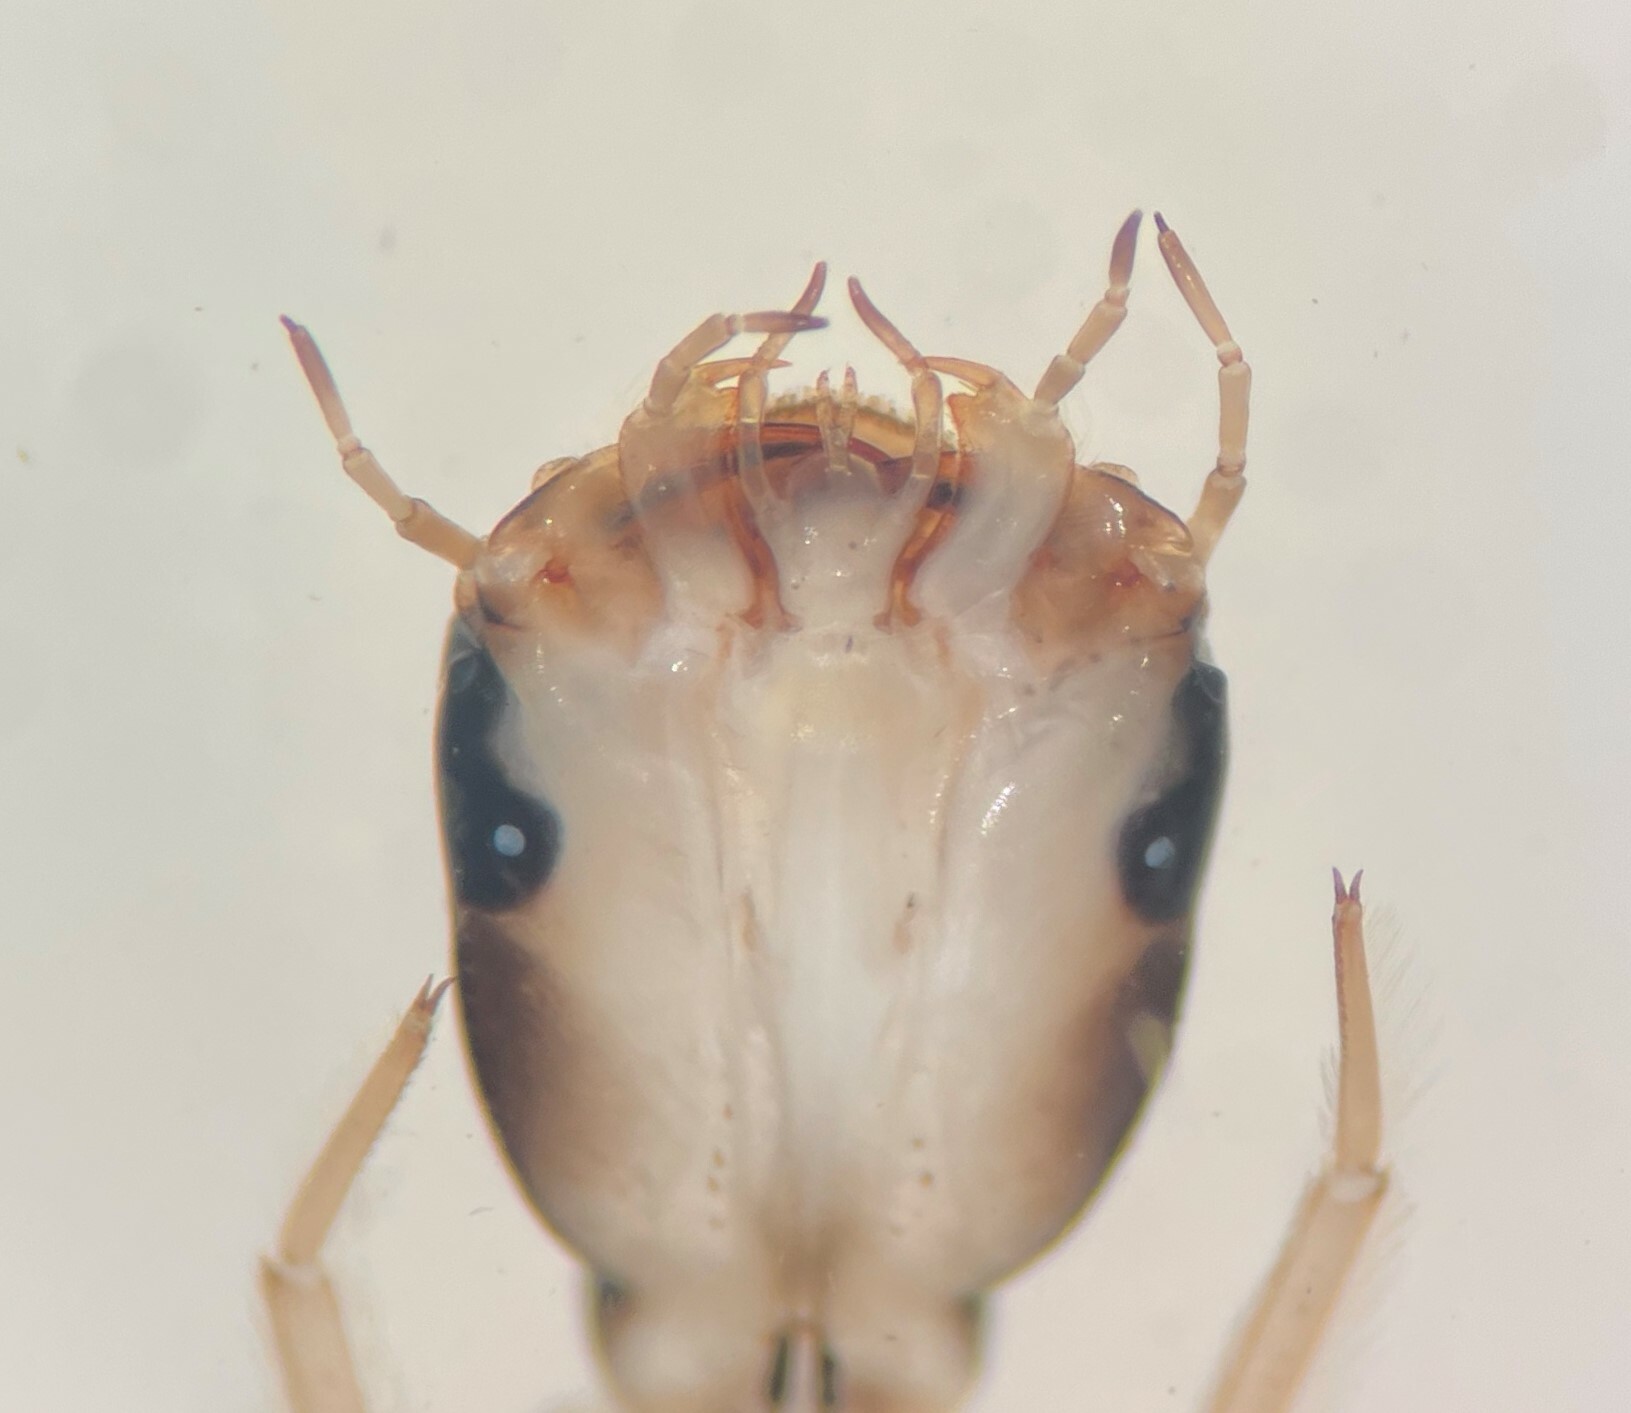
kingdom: Animalia
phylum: Arthropoda
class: Insecta
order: Coleoptera
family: Dytiscidae
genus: Acilius
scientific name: Acilius
